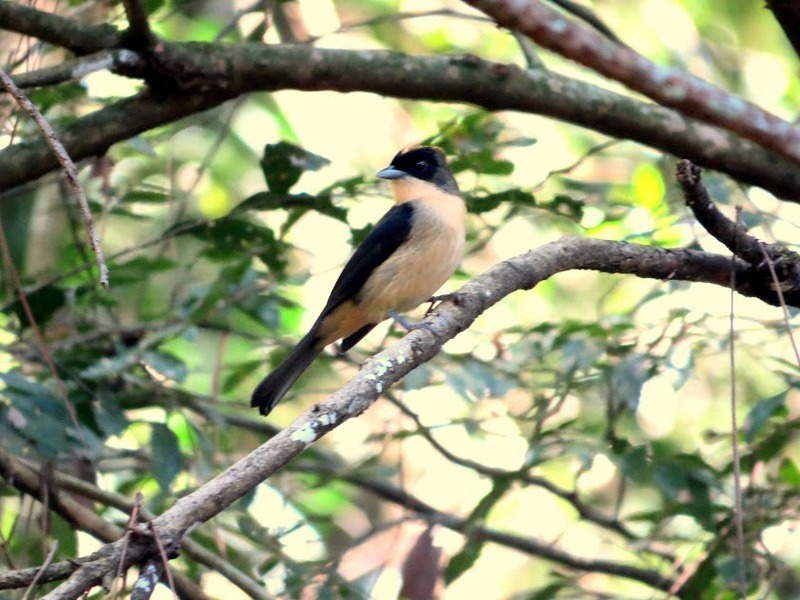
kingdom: Animalia
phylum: Chordata
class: Aves
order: Passeriformes
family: Thraupidae
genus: Trichothraupis
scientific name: Trichothraupis melanops
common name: Black-goggled tanager
